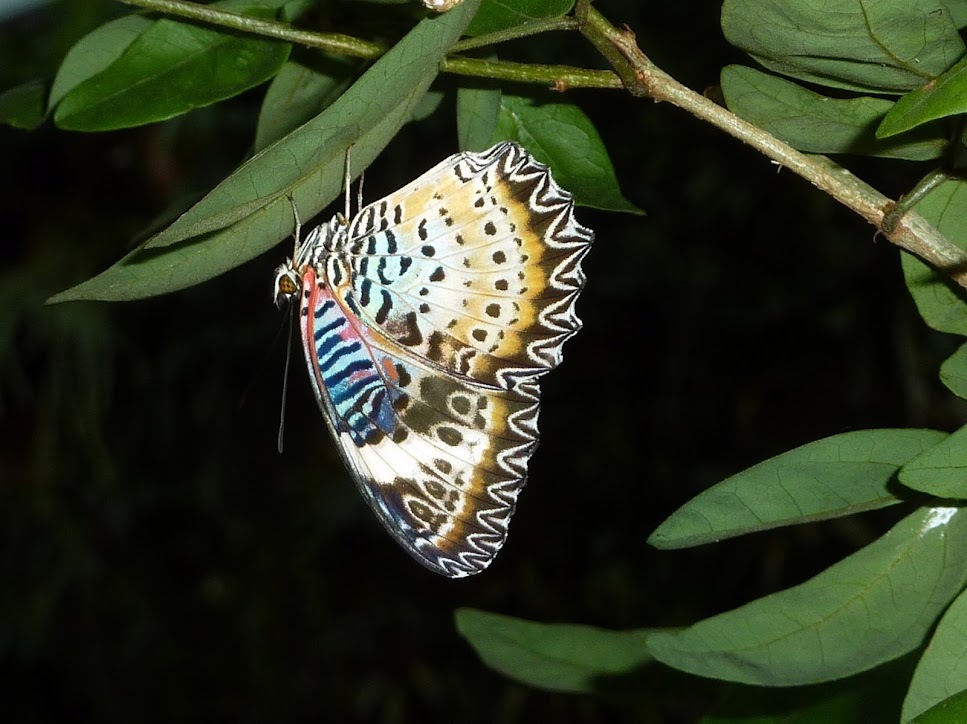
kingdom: Animalia
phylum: Arthropoda
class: Insecta
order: Lepidoptera
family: Nymphalidae
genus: Cethosia
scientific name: Cethosia cyane
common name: Leopard lacewing butterfly
